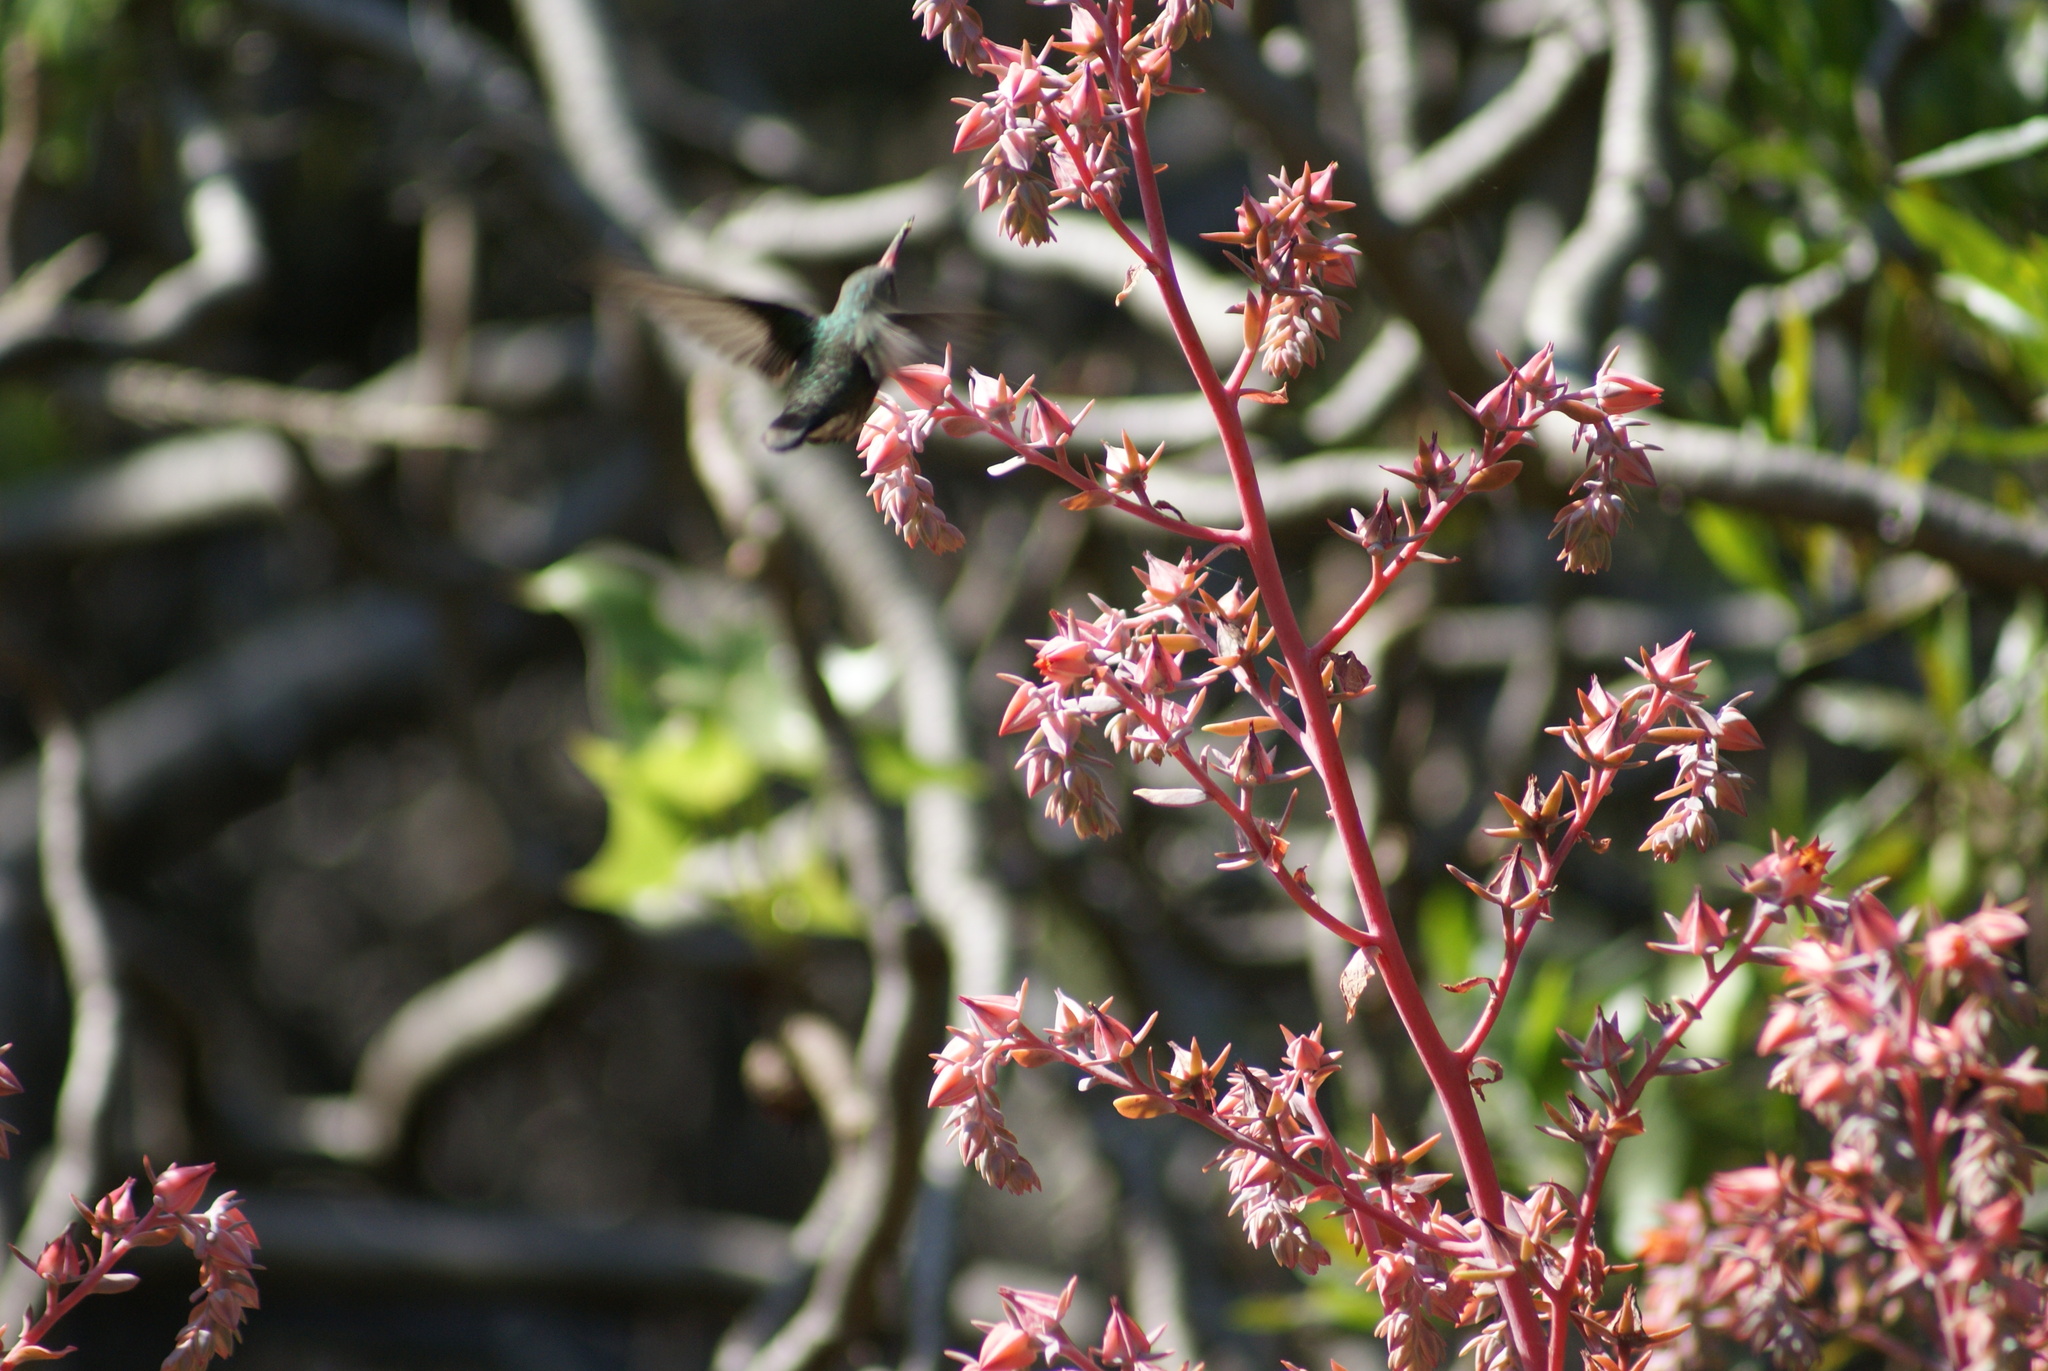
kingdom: Animalia
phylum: Chordata
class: Aves
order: Apodiformes
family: Trochilidae
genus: Cynanthus
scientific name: Cynanthus latirostris
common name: Broad-billed hummingbird
